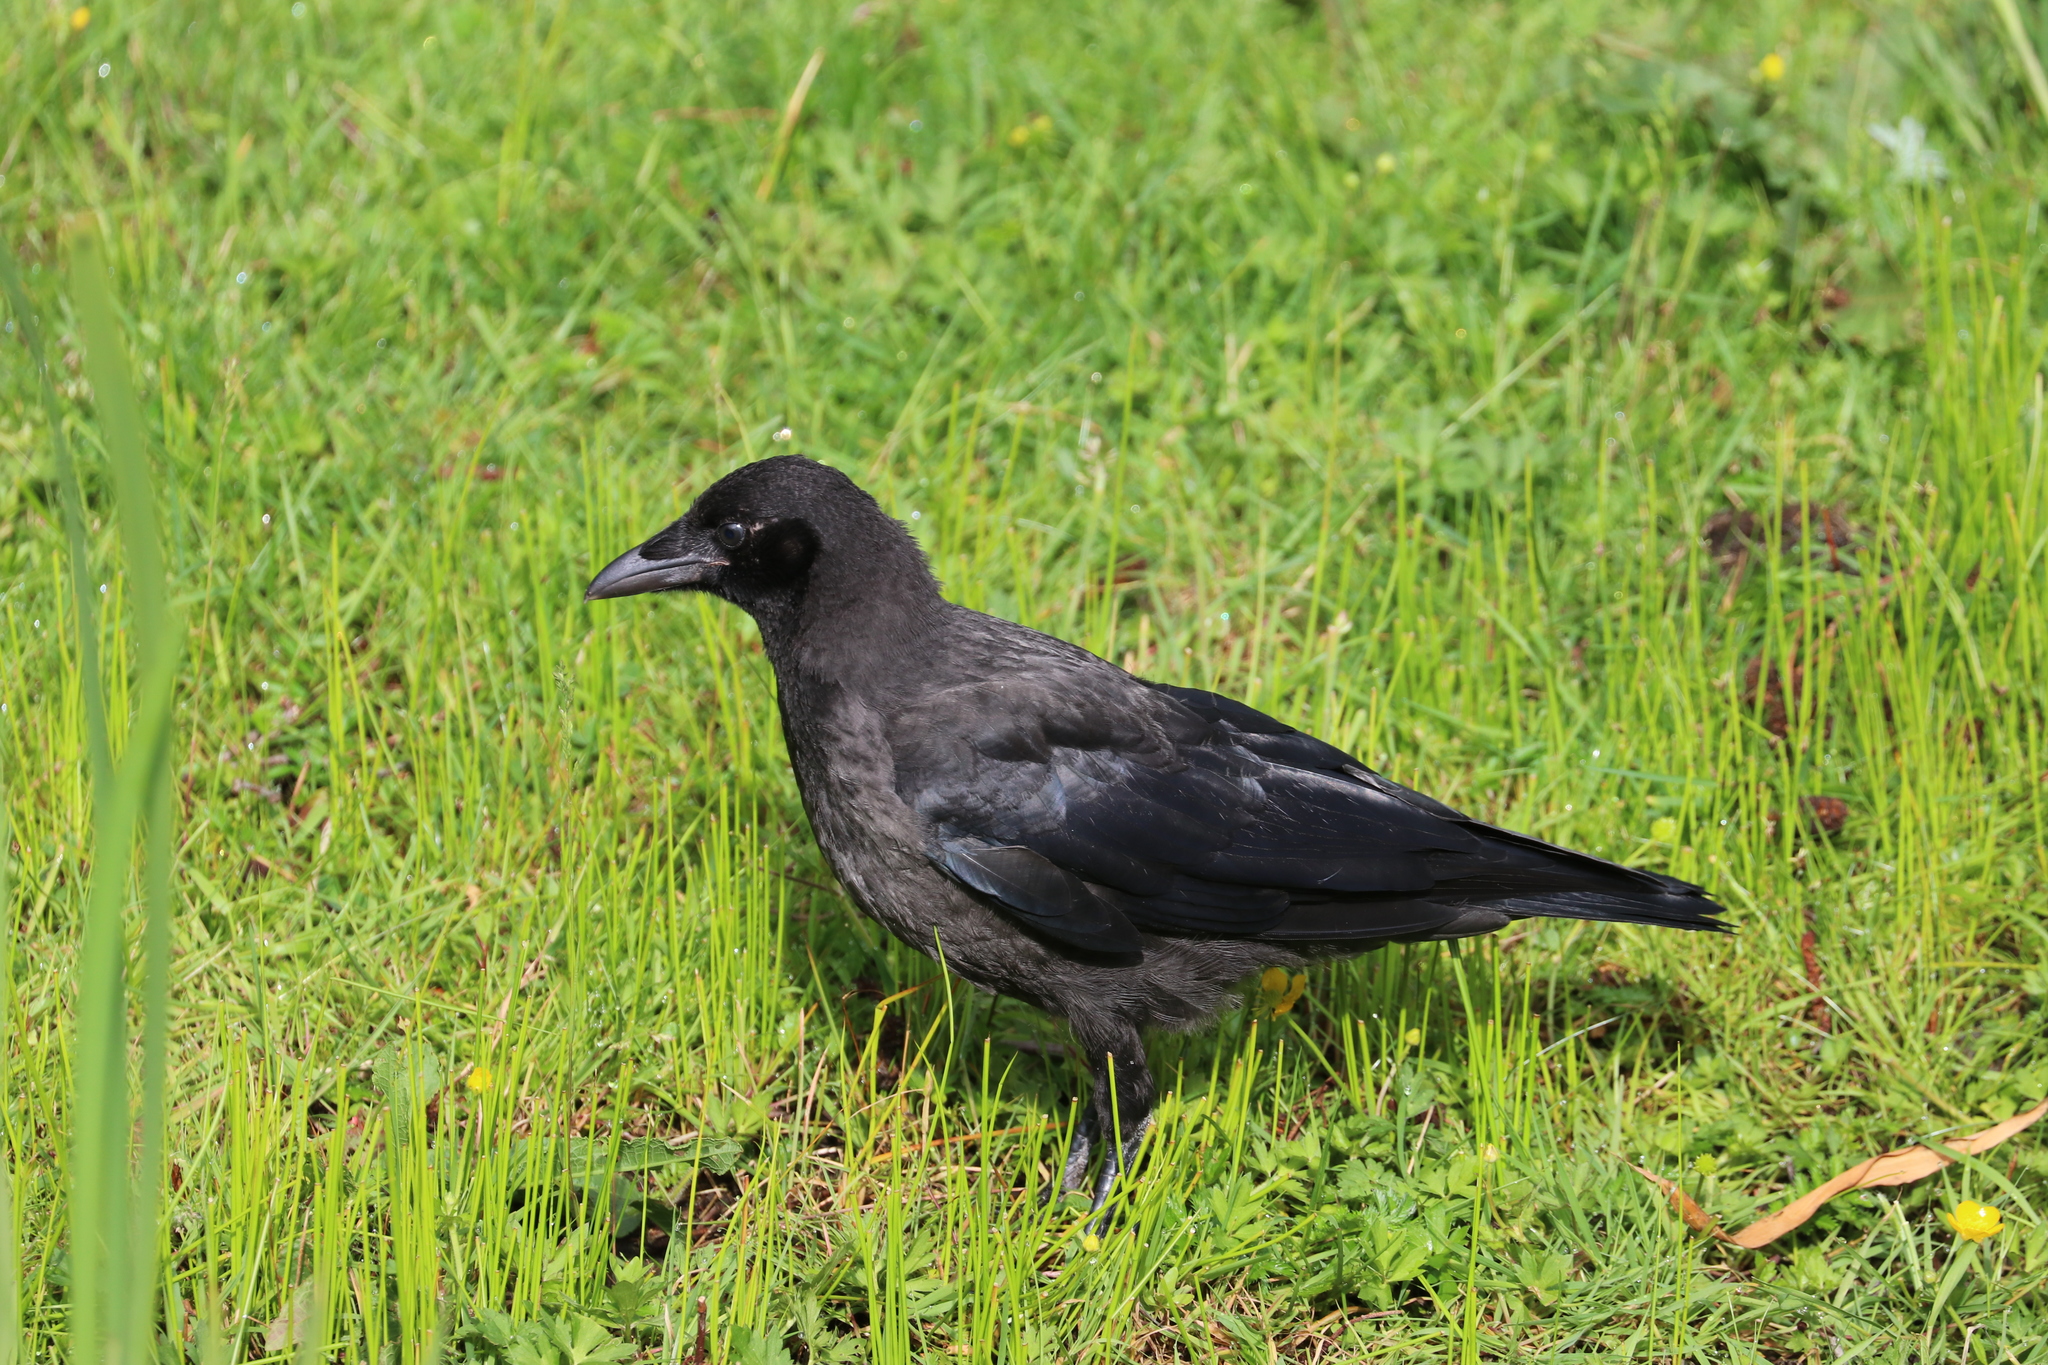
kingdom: Animalia
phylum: Chordata
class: Aves
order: Passeriformes
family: Corvidae
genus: Corvus
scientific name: Corvus corone
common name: Carrion crow
